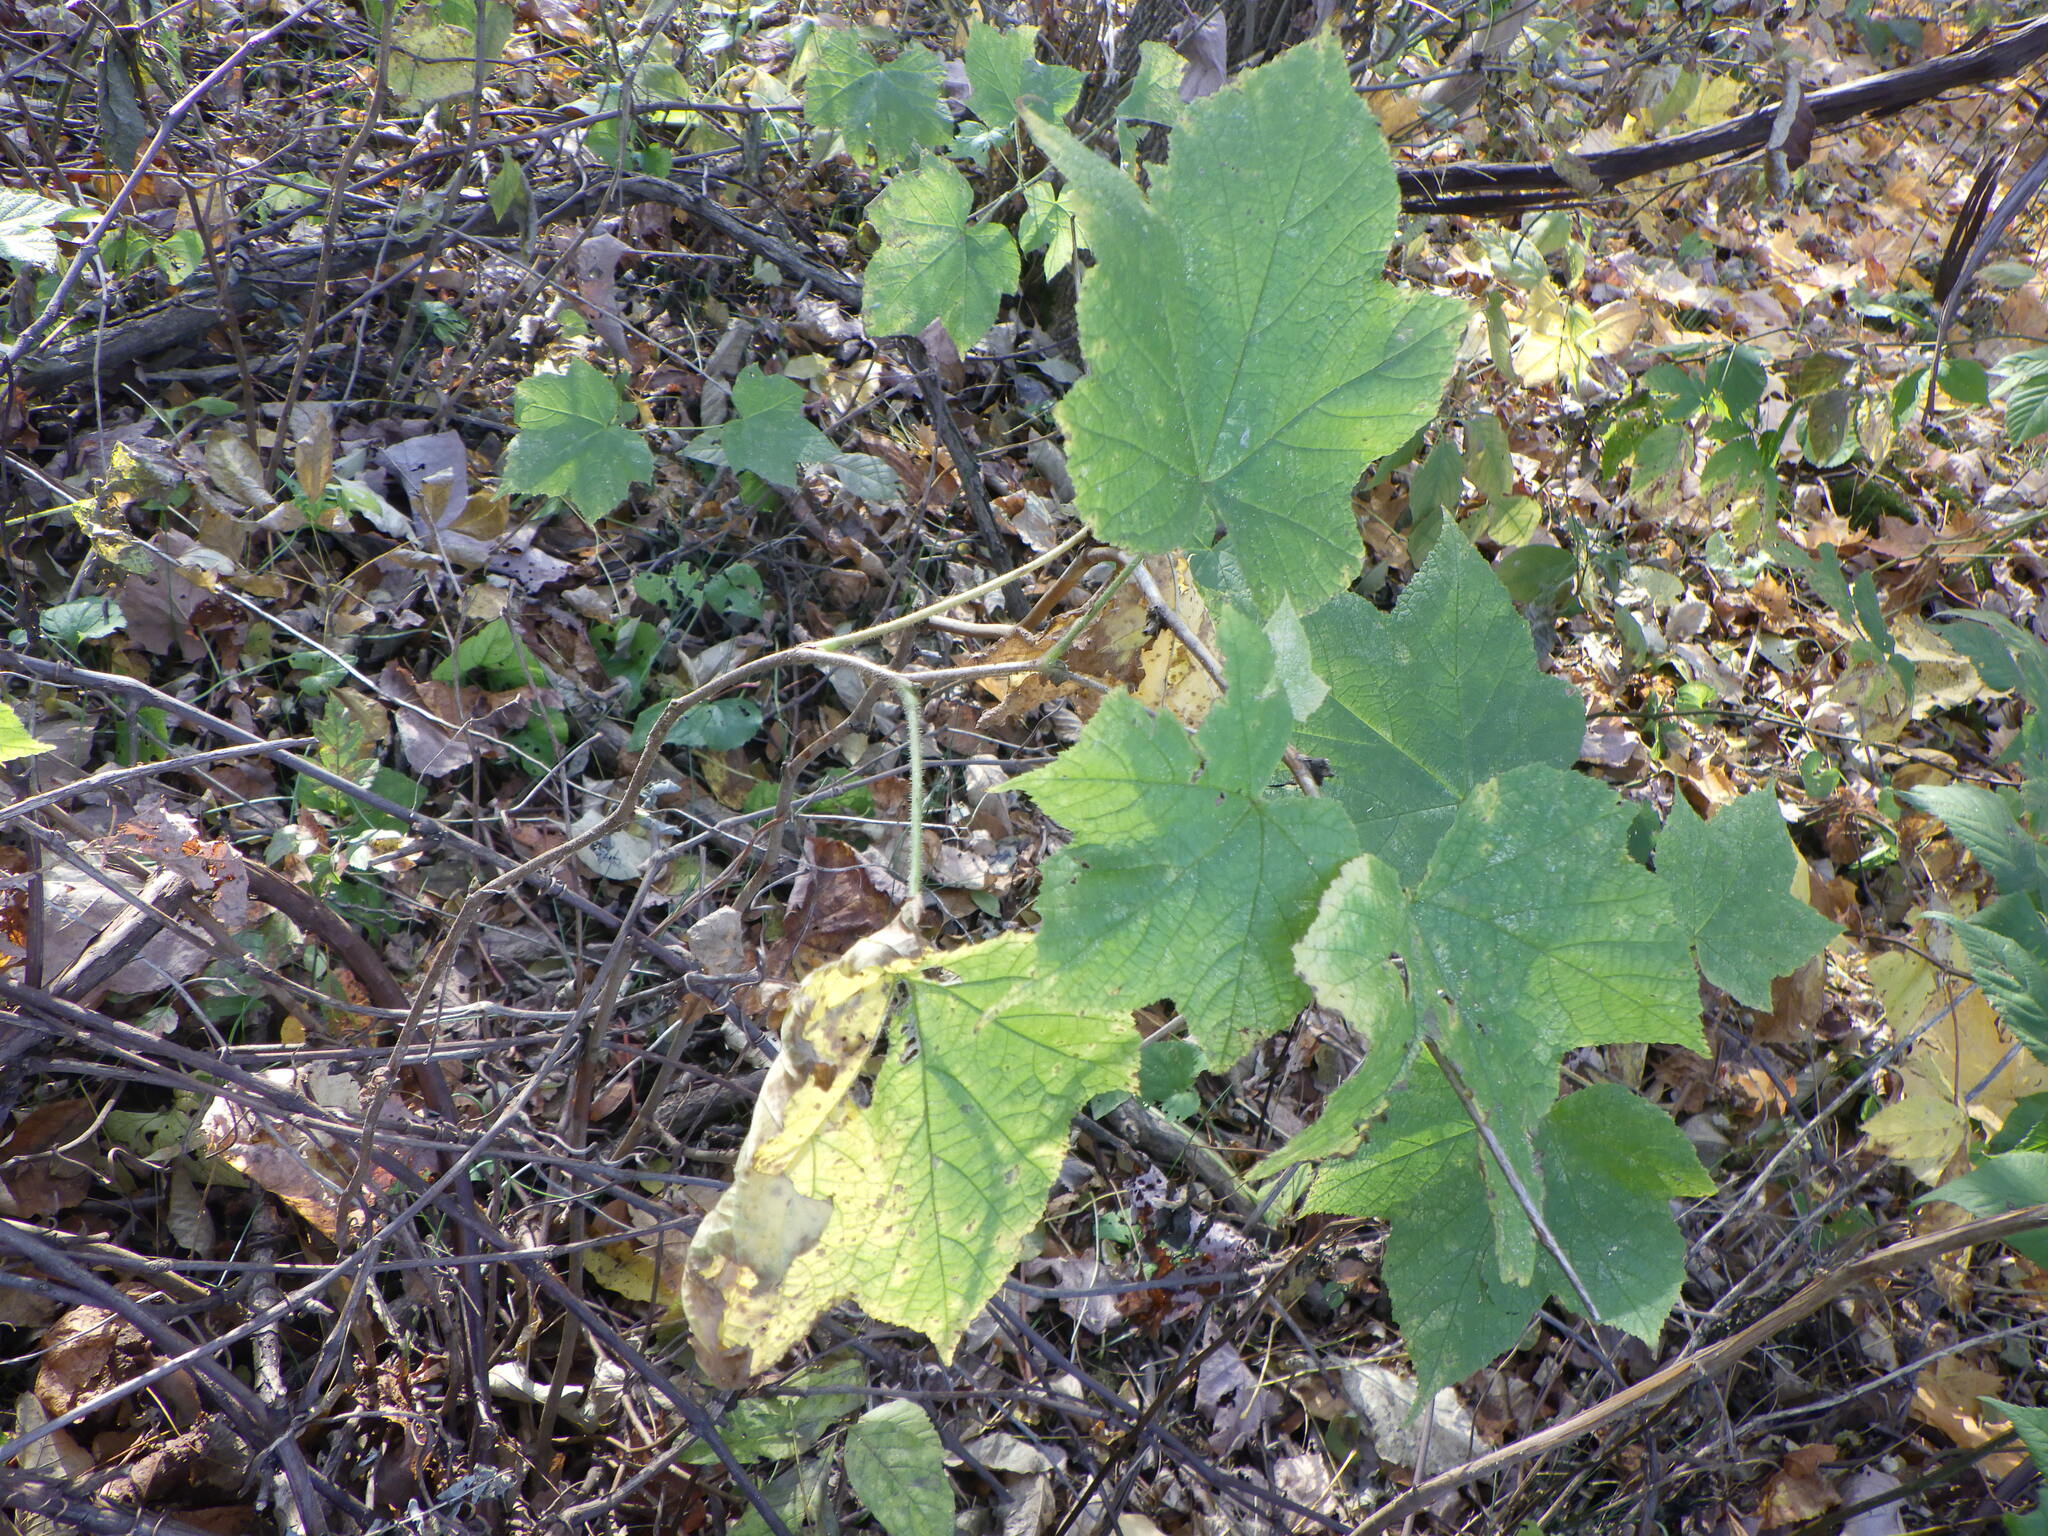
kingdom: Plantae
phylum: Tracheophyta
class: Magnoliopsida
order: Rosales
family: Rosaceae
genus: Rubus
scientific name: Rubus odoratus
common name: Purple-flowered raspberry
